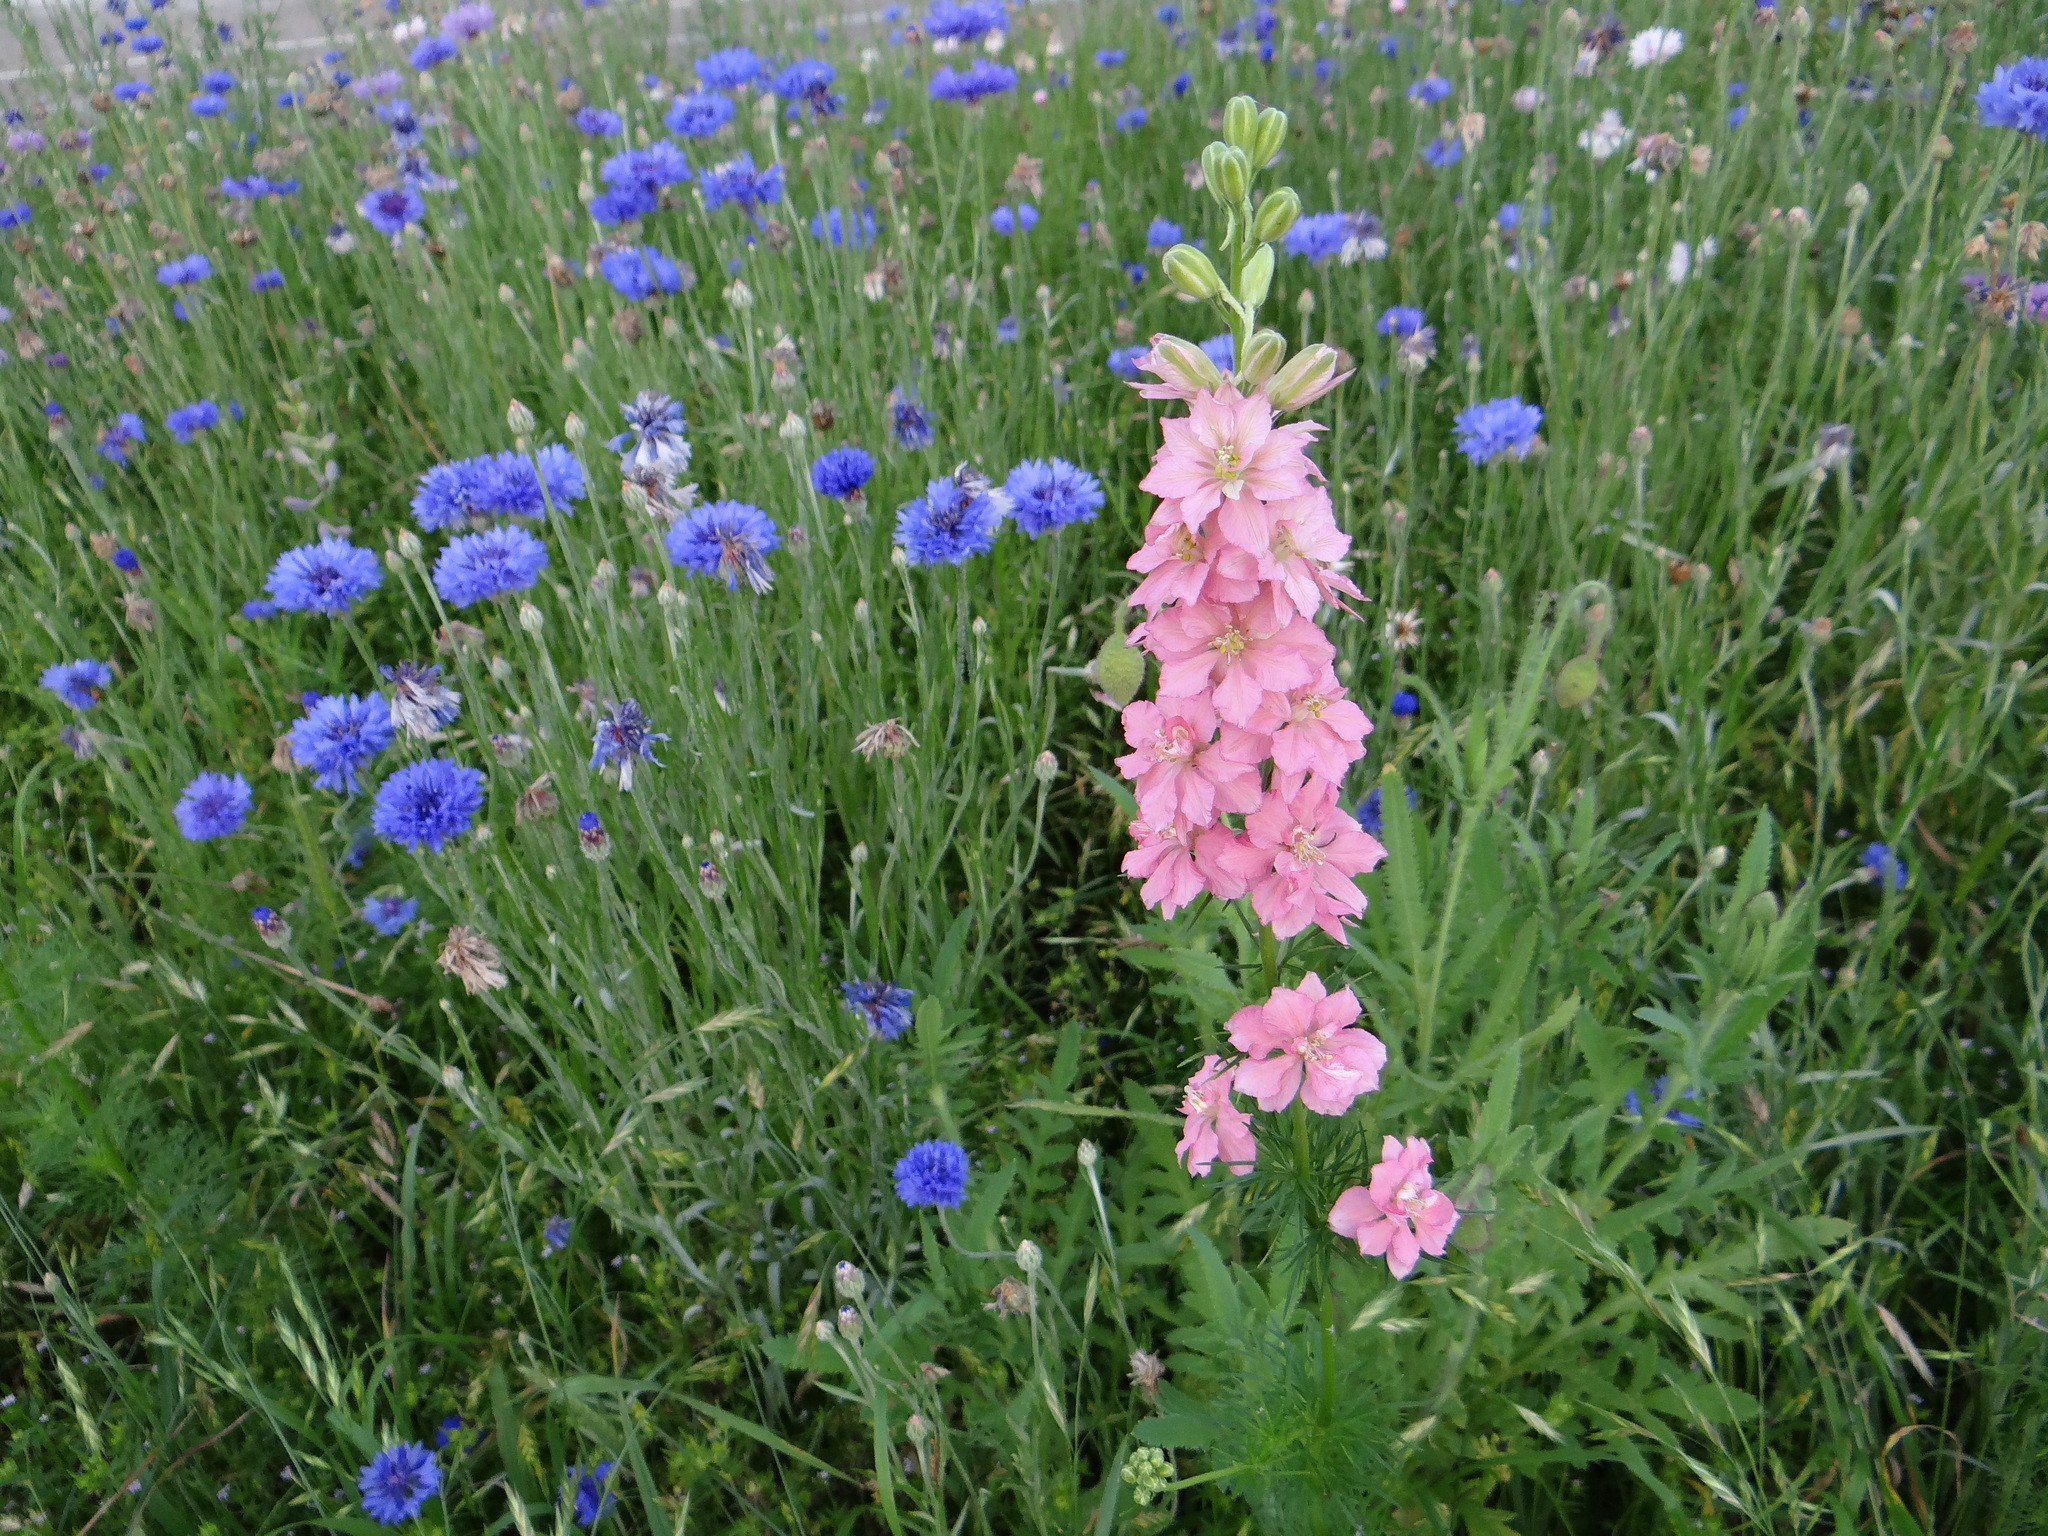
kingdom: Plantae
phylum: Tracheophyta
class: Magnoliopsida
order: Ranunculales
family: Ranunculaceae
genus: Delphinium
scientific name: Delphinium ajacis
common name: Doubtful knight's-spur
